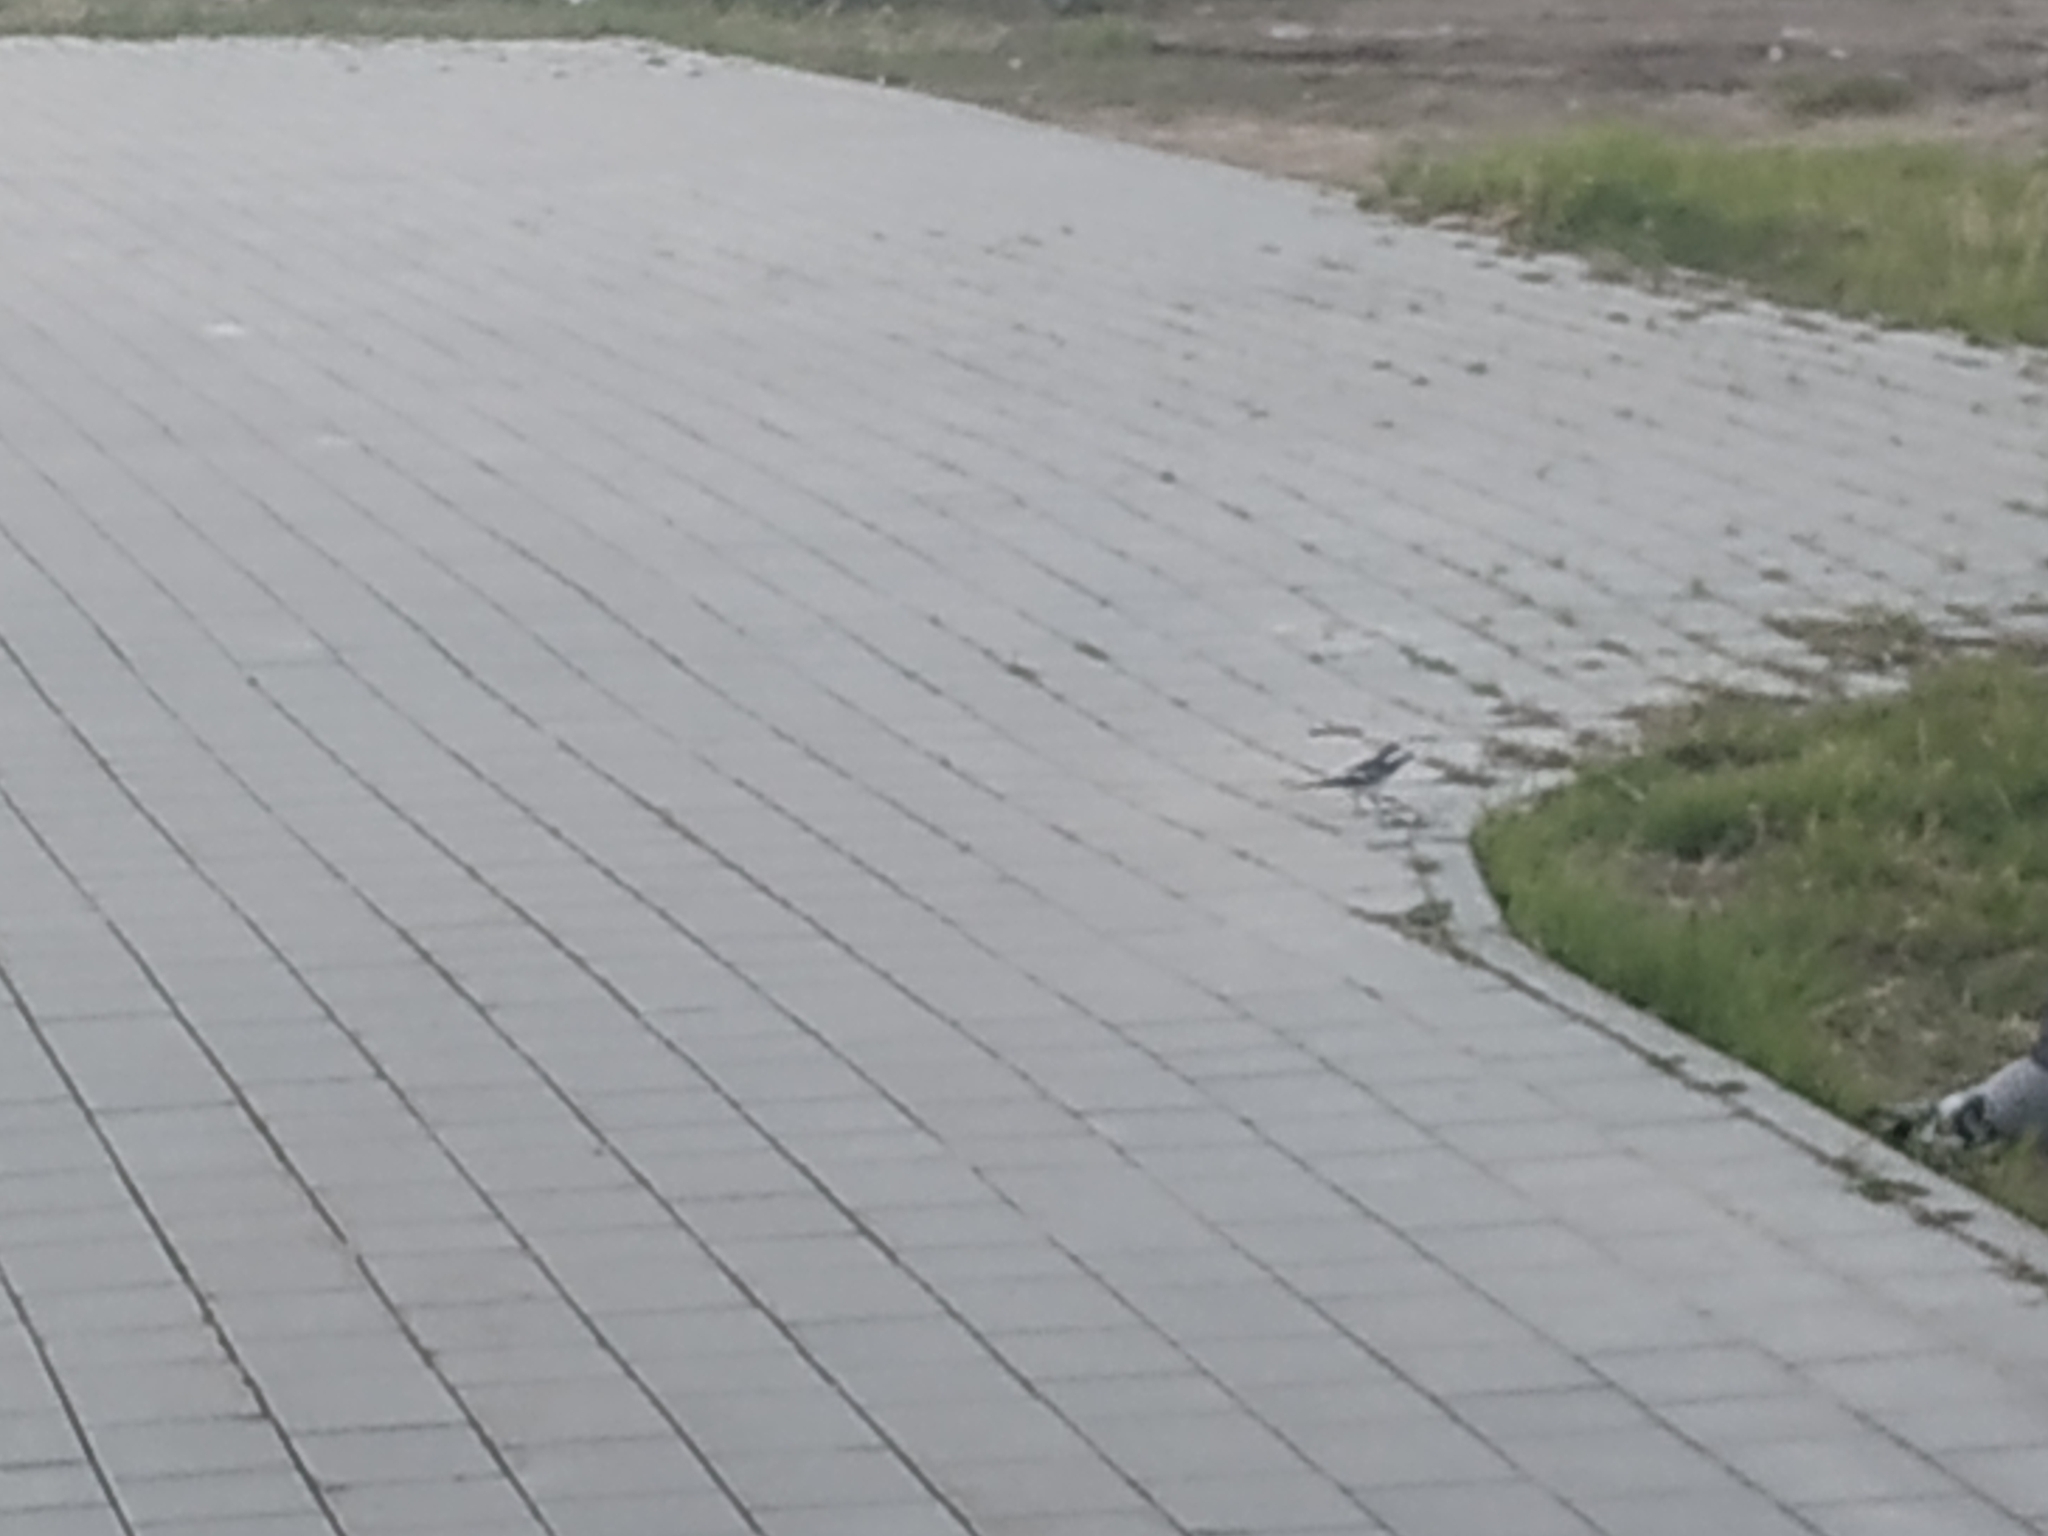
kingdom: Animalia
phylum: Chordata
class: Aves
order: Passeriformes
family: Motacillidae
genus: Motacilla
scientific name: Motacilla alba
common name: White wagtail
